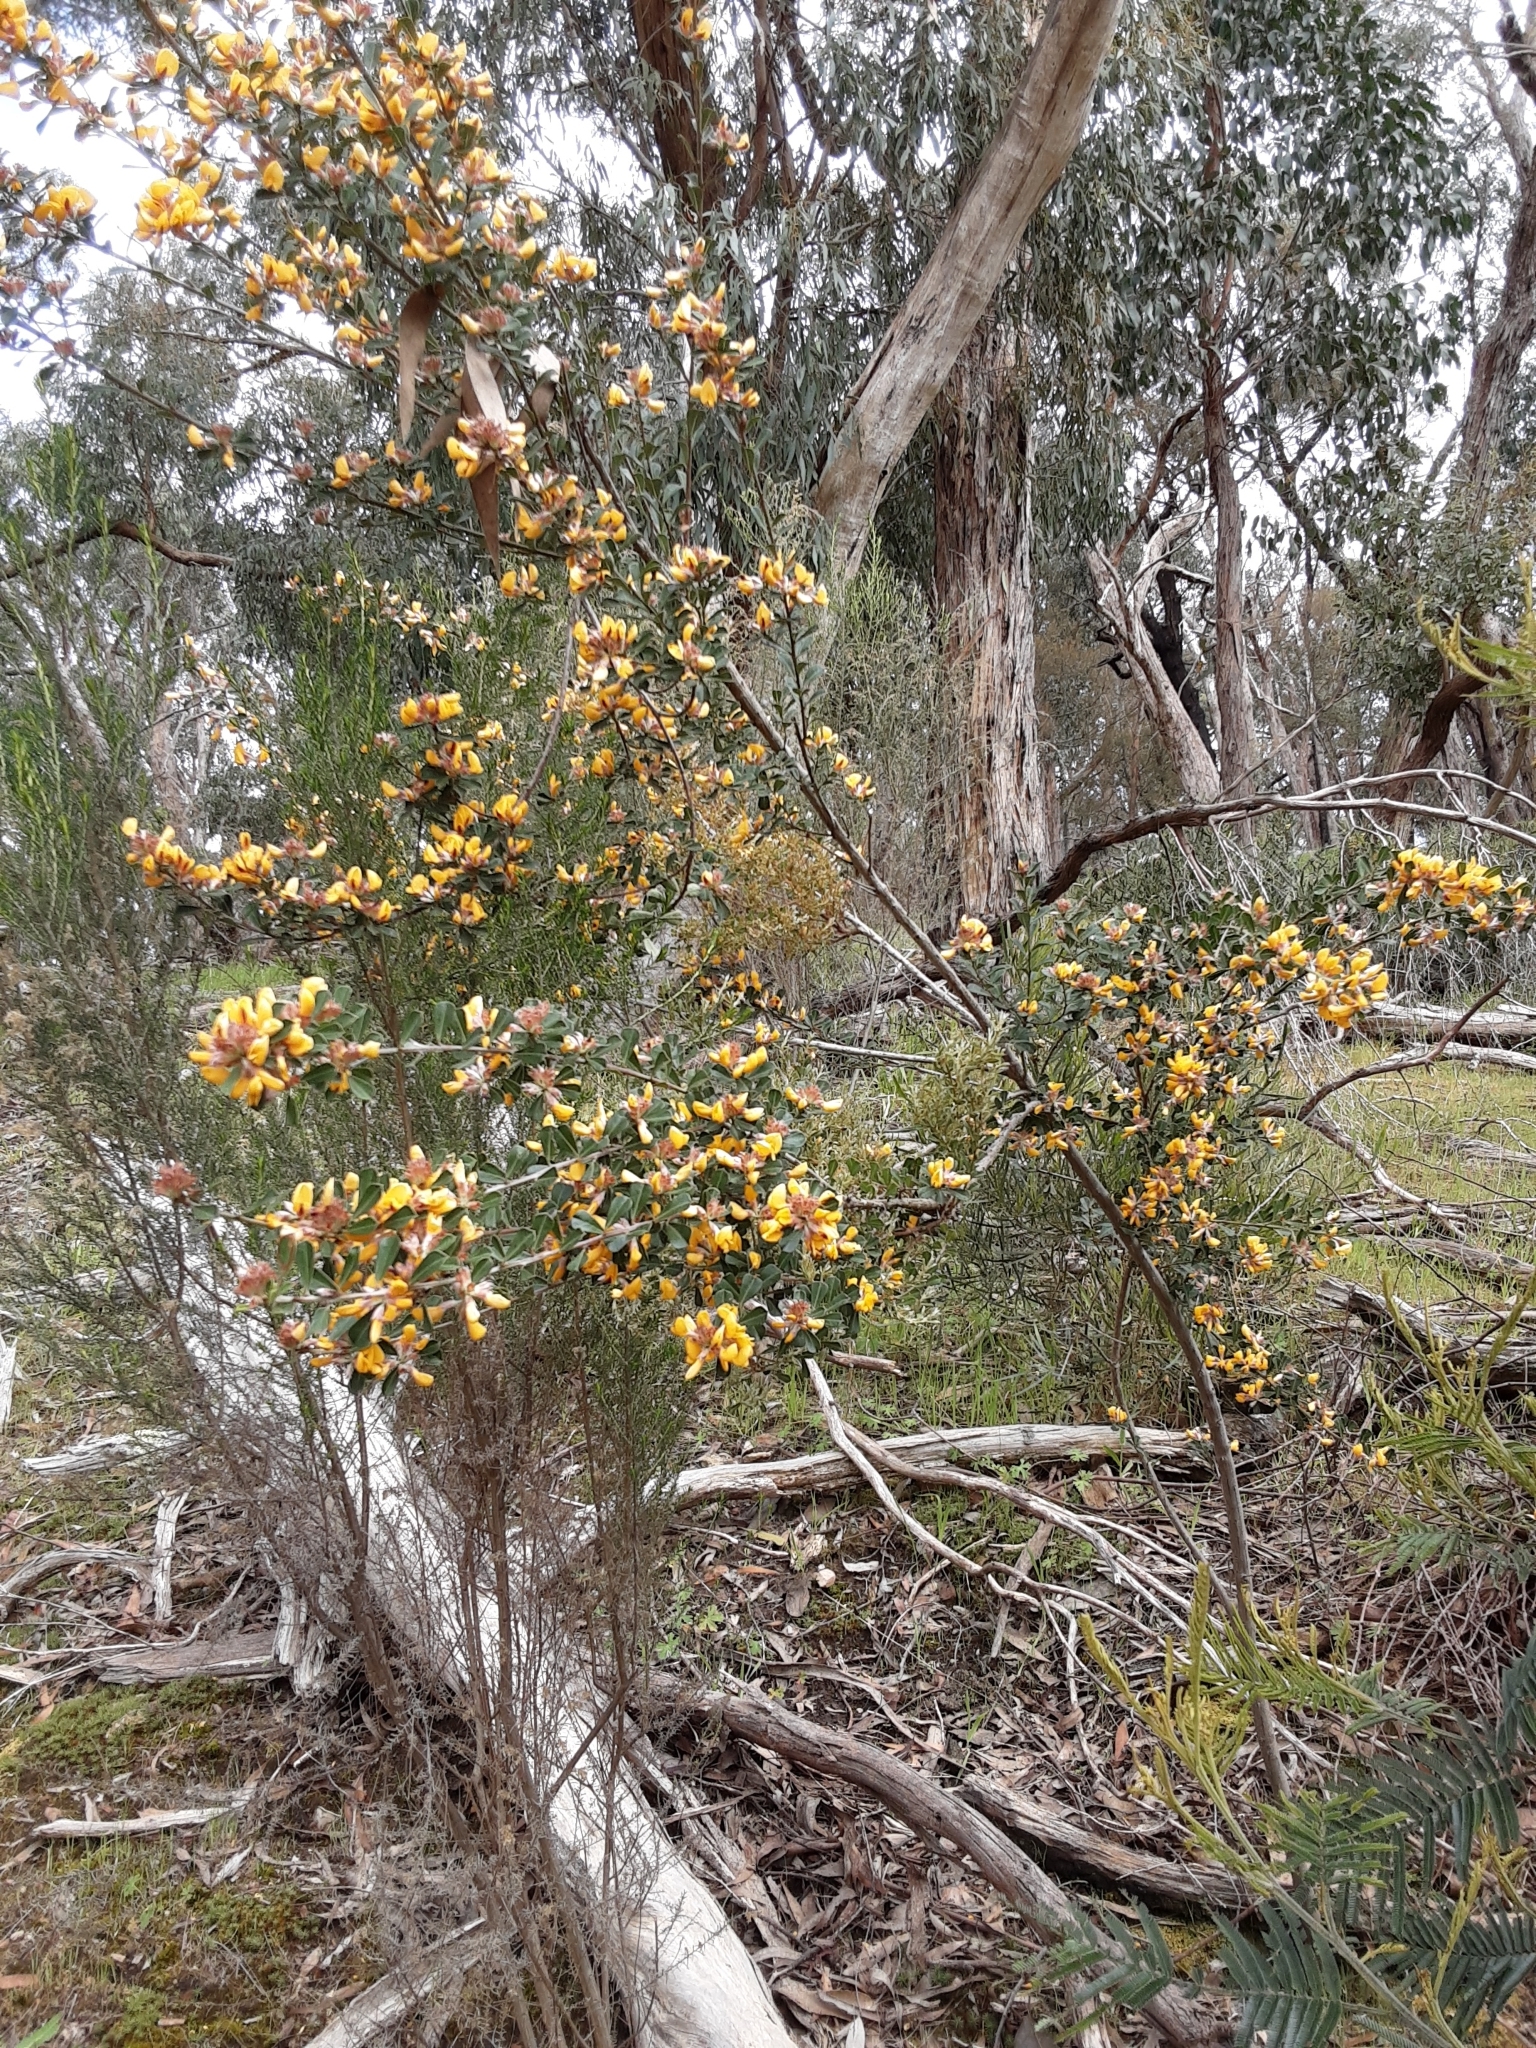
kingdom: Plantae
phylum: Tracheophyta
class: Magnoliopsida
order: Fabales
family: Fabaceae
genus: Pultenaea
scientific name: Pultenaea daphnoides
